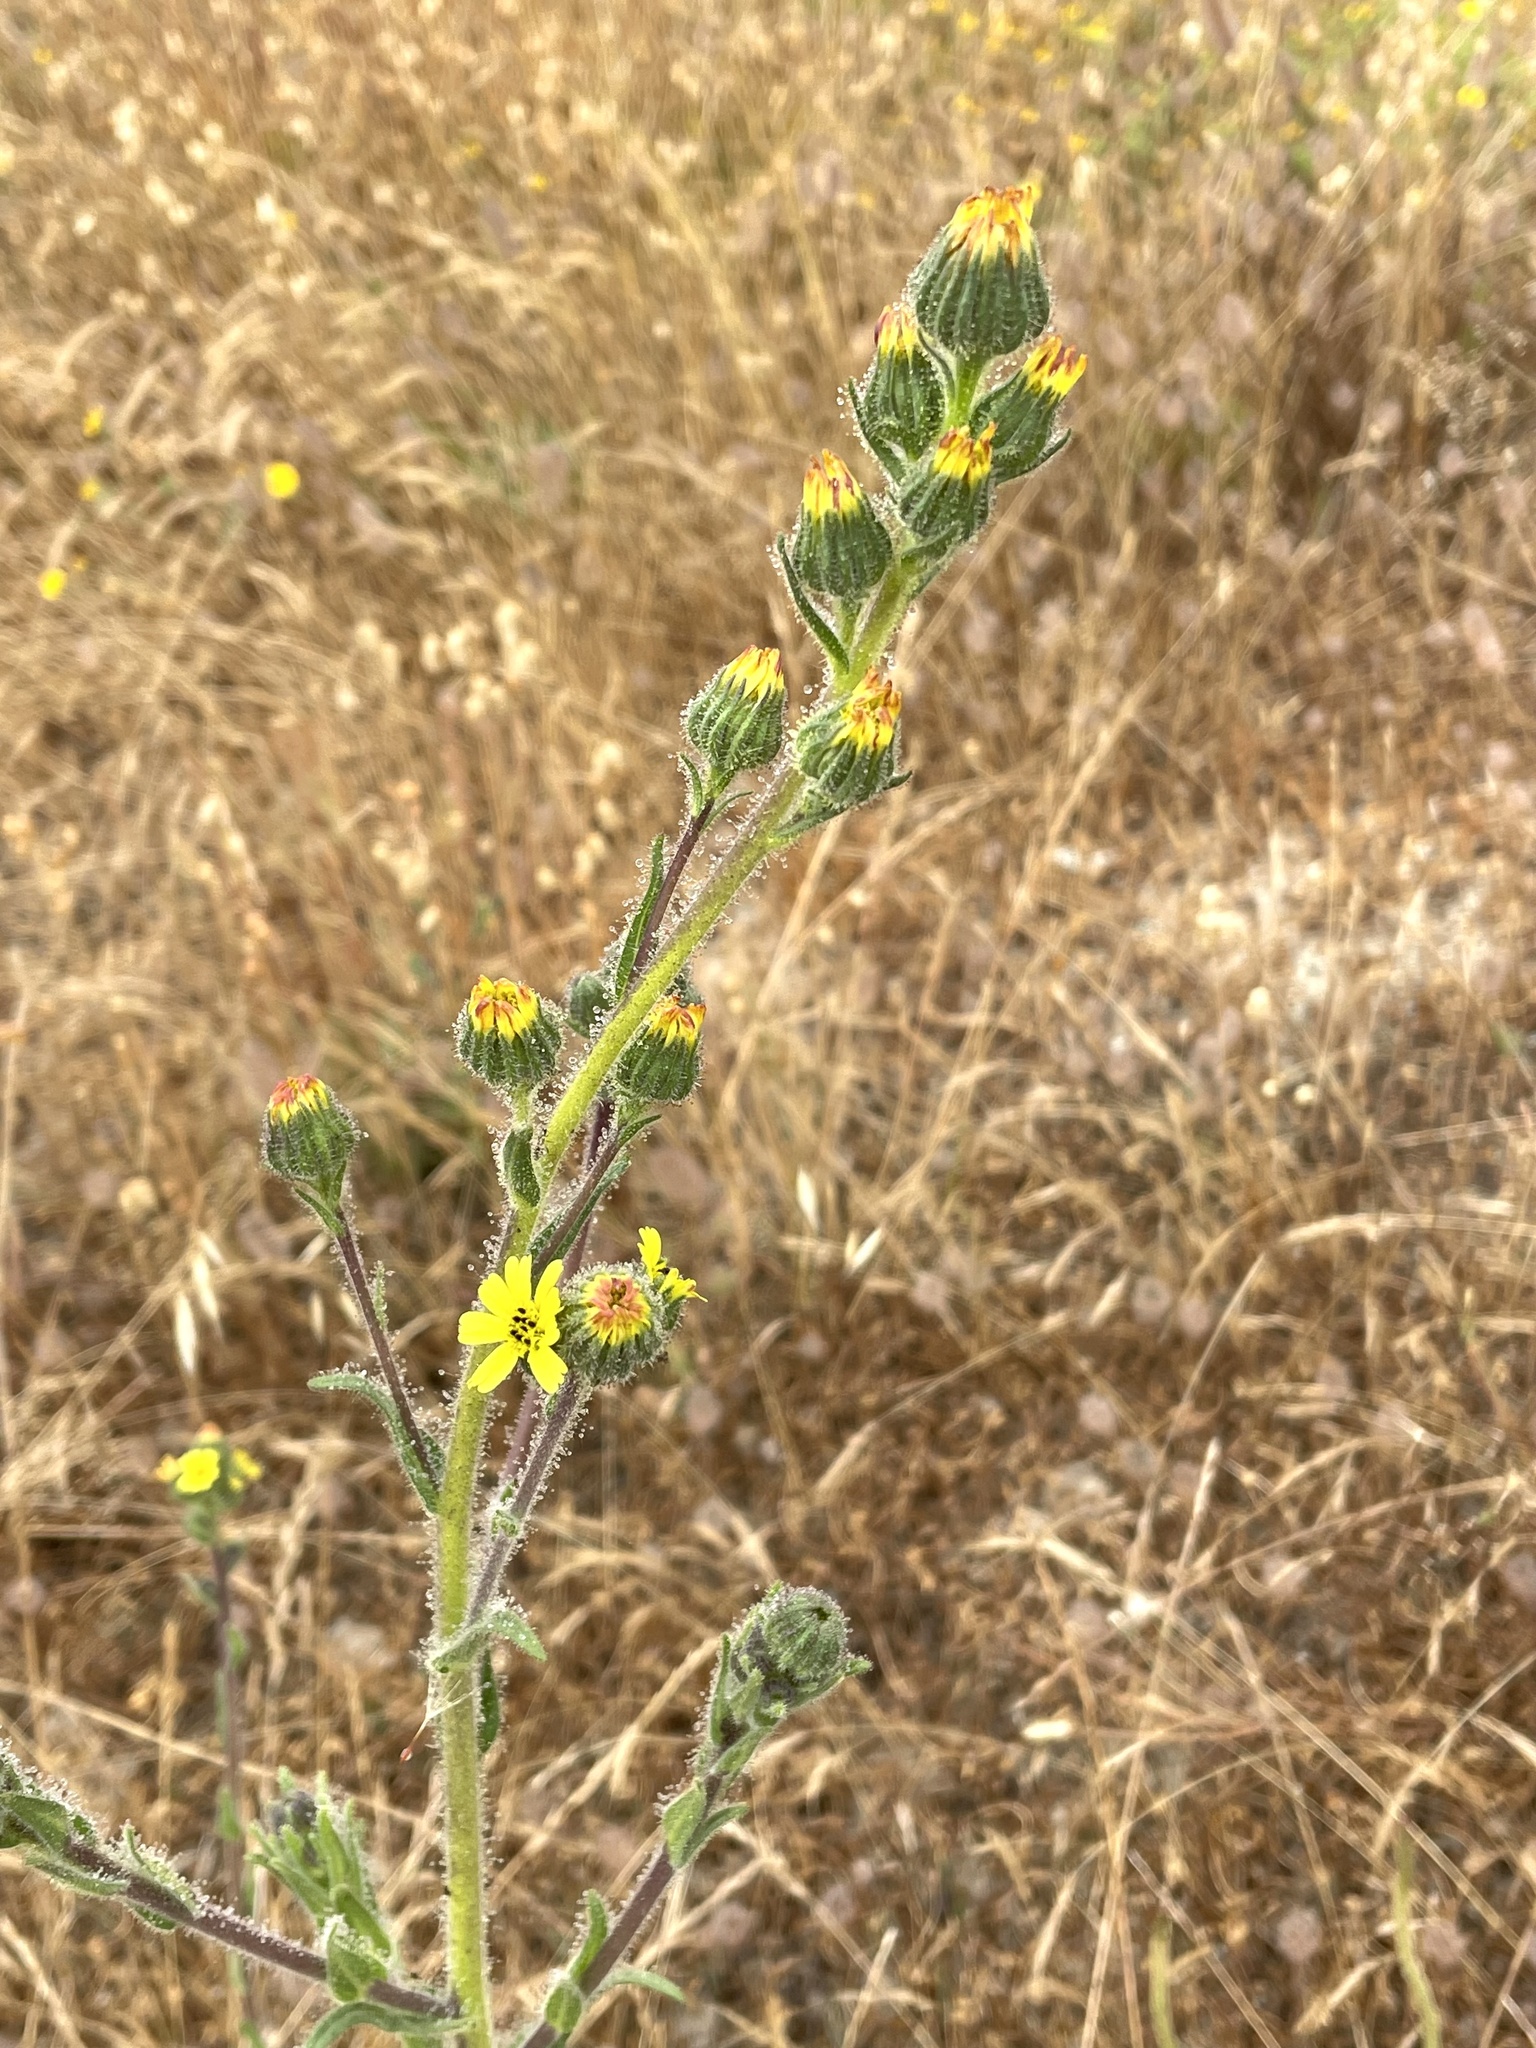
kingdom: Plantae
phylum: Tracheophyta
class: Magnoliopsida
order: Asterales
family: Asteraceae
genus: Madia
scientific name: Madia sativa
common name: Coast tarweed
